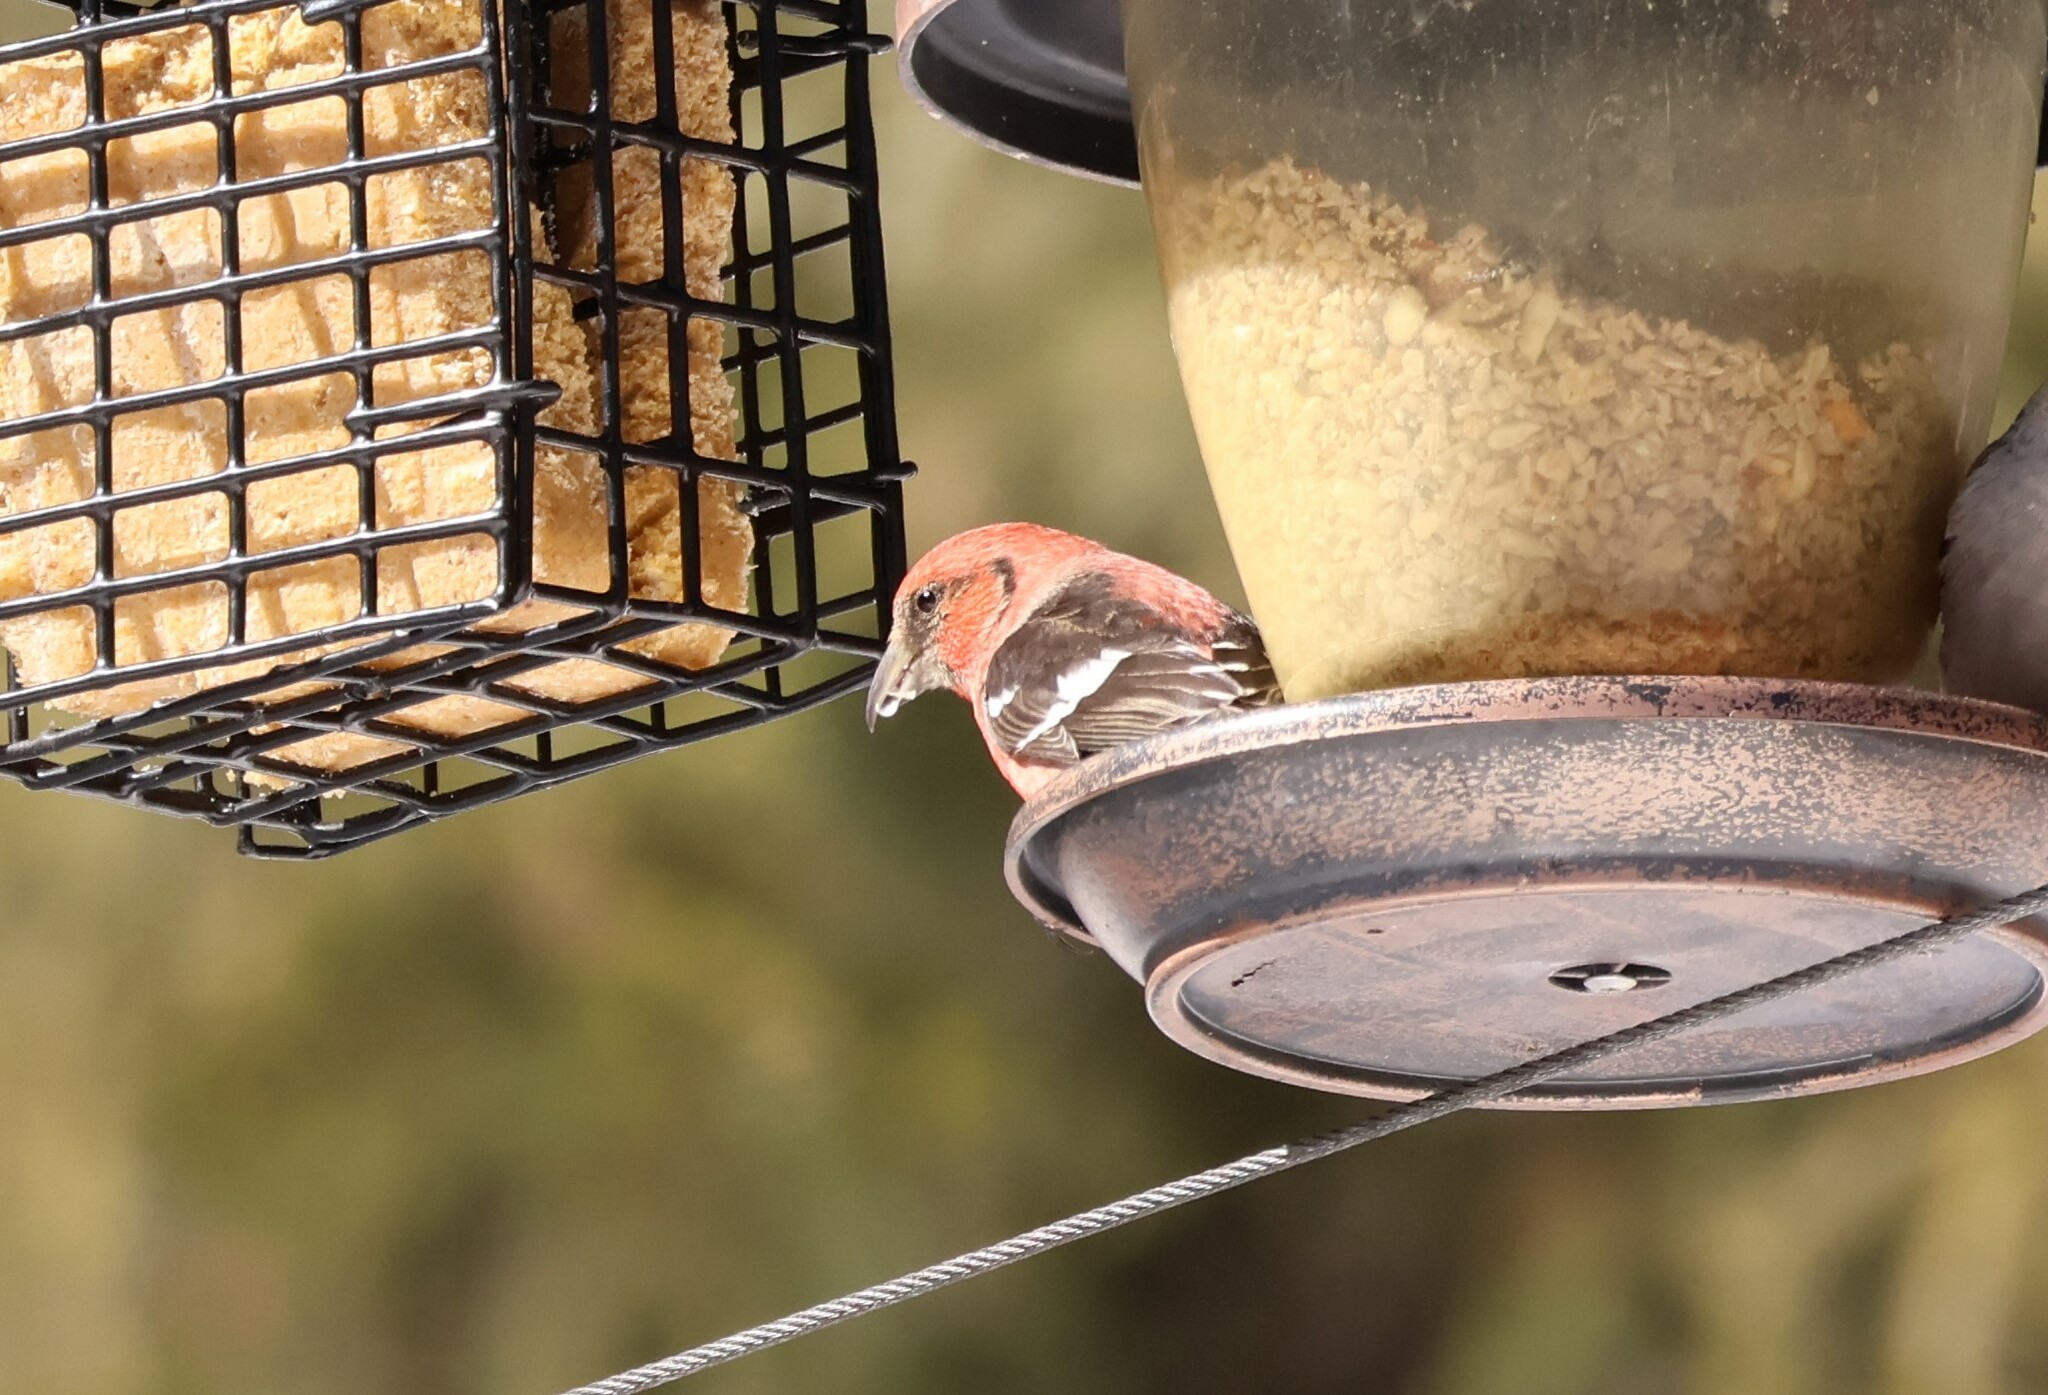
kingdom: Animalia
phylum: Chordata
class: Aves
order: Passeriformes
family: Fringillidae
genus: Loxia
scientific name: Loxia leucoptera
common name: Two-barred crossbill
